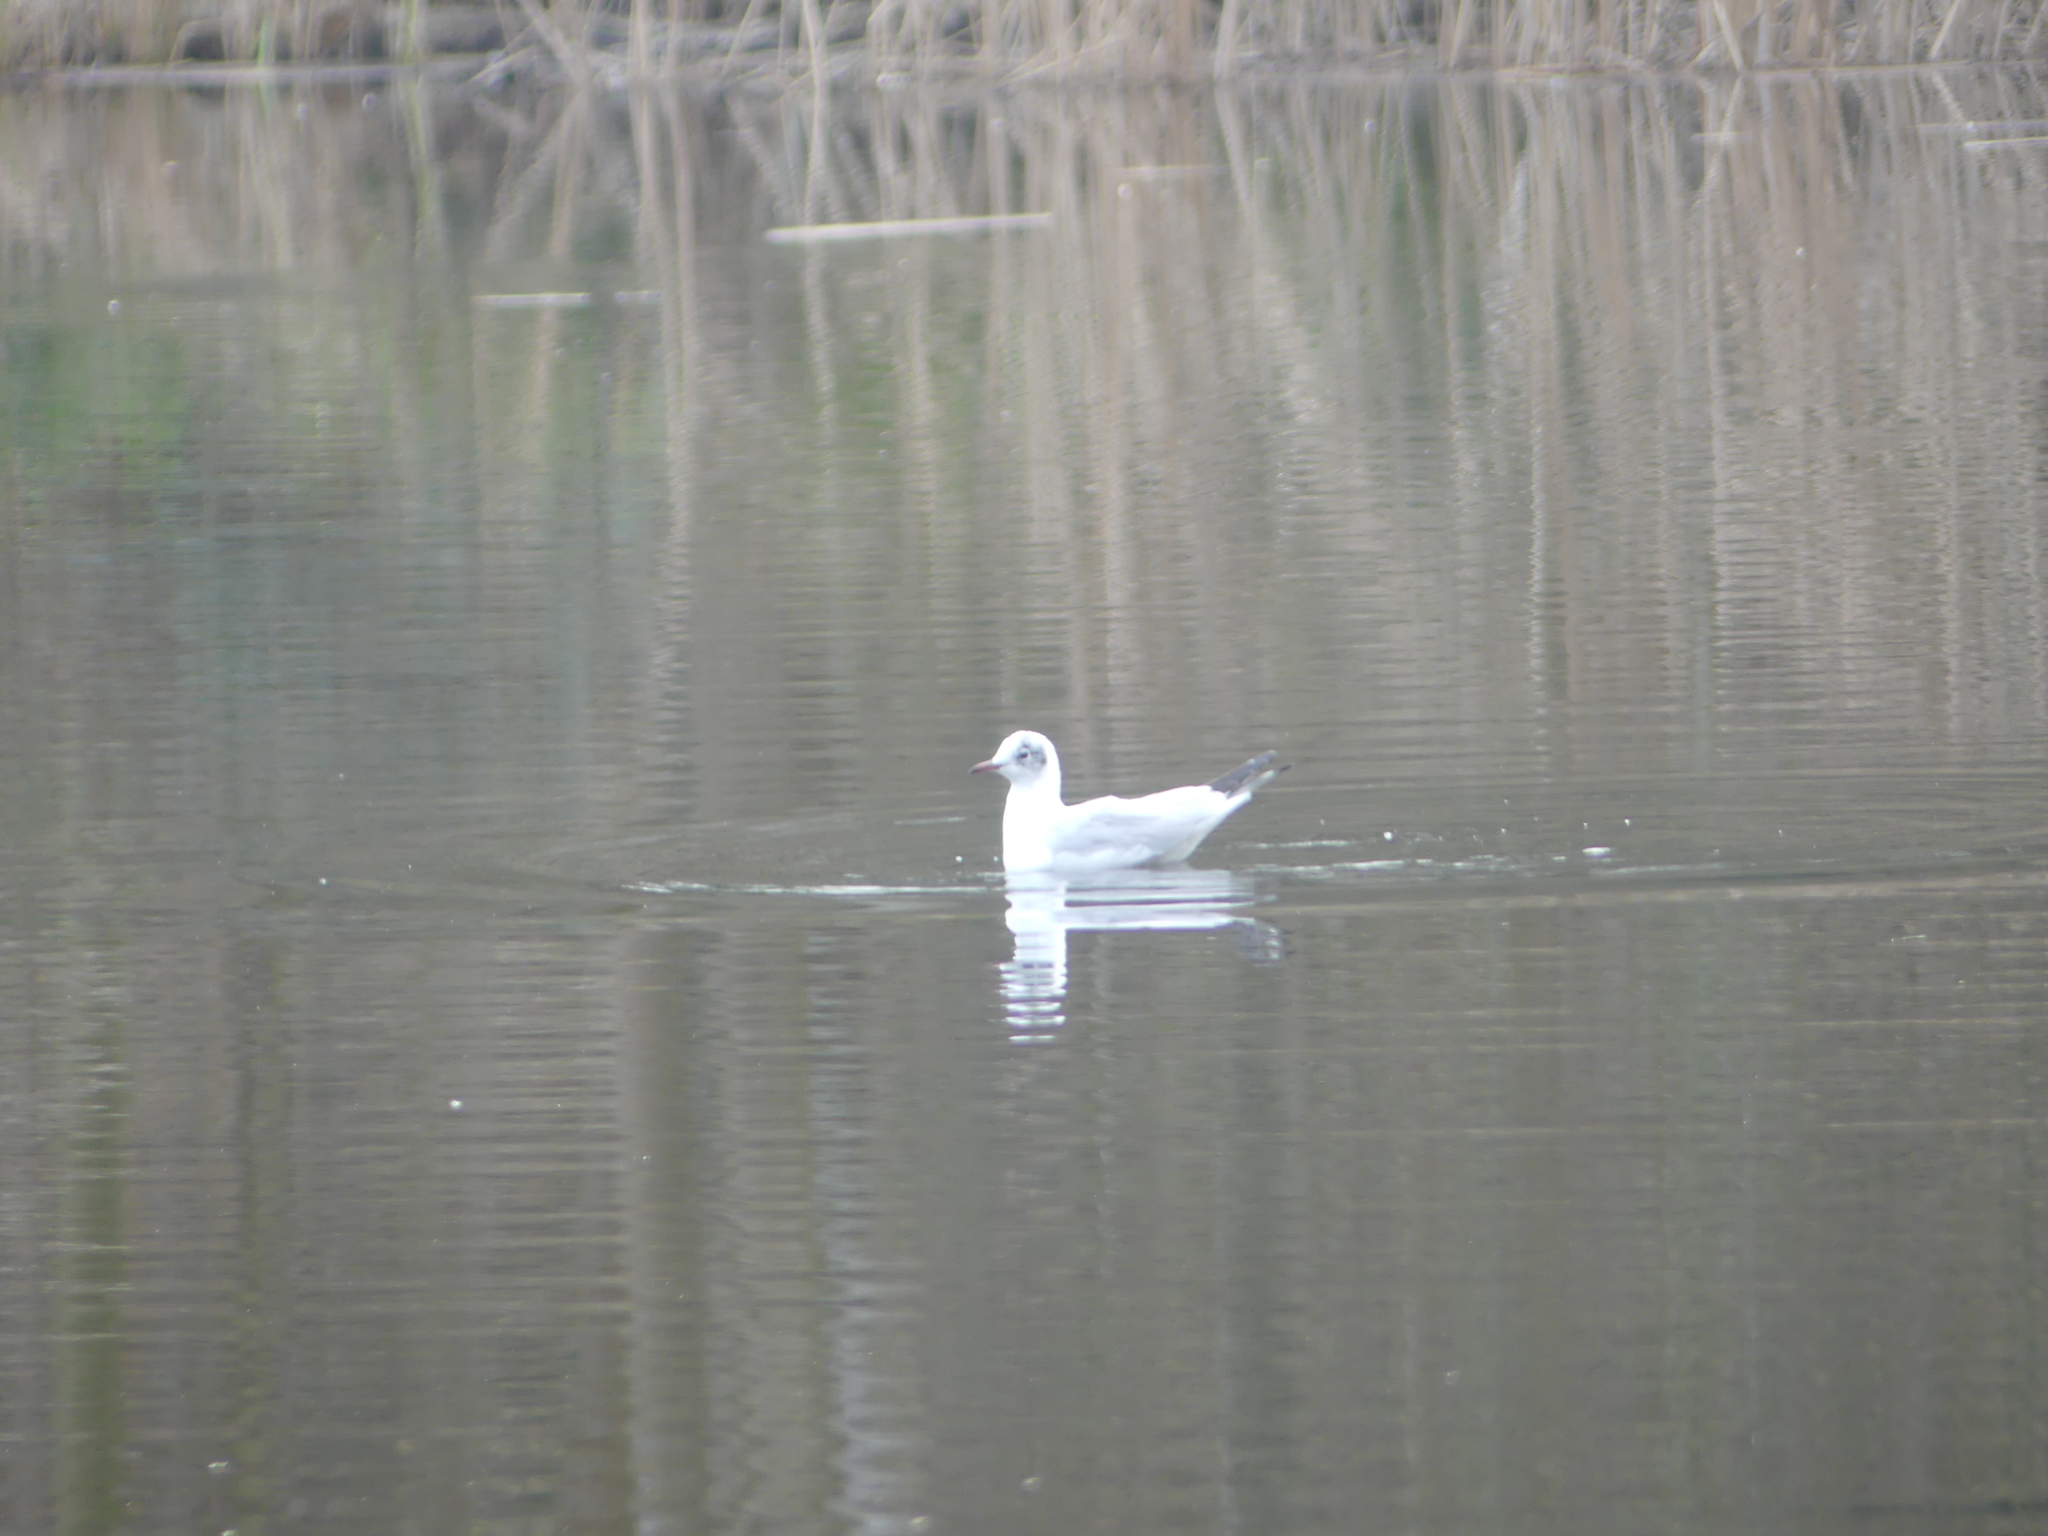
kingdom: Animalia
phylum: Chordata
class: Aves
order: Charadriiformes
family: Laridae
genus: Chroicocephalus
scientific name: Chroicocephalus ridibundus
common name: Black-headed gull
